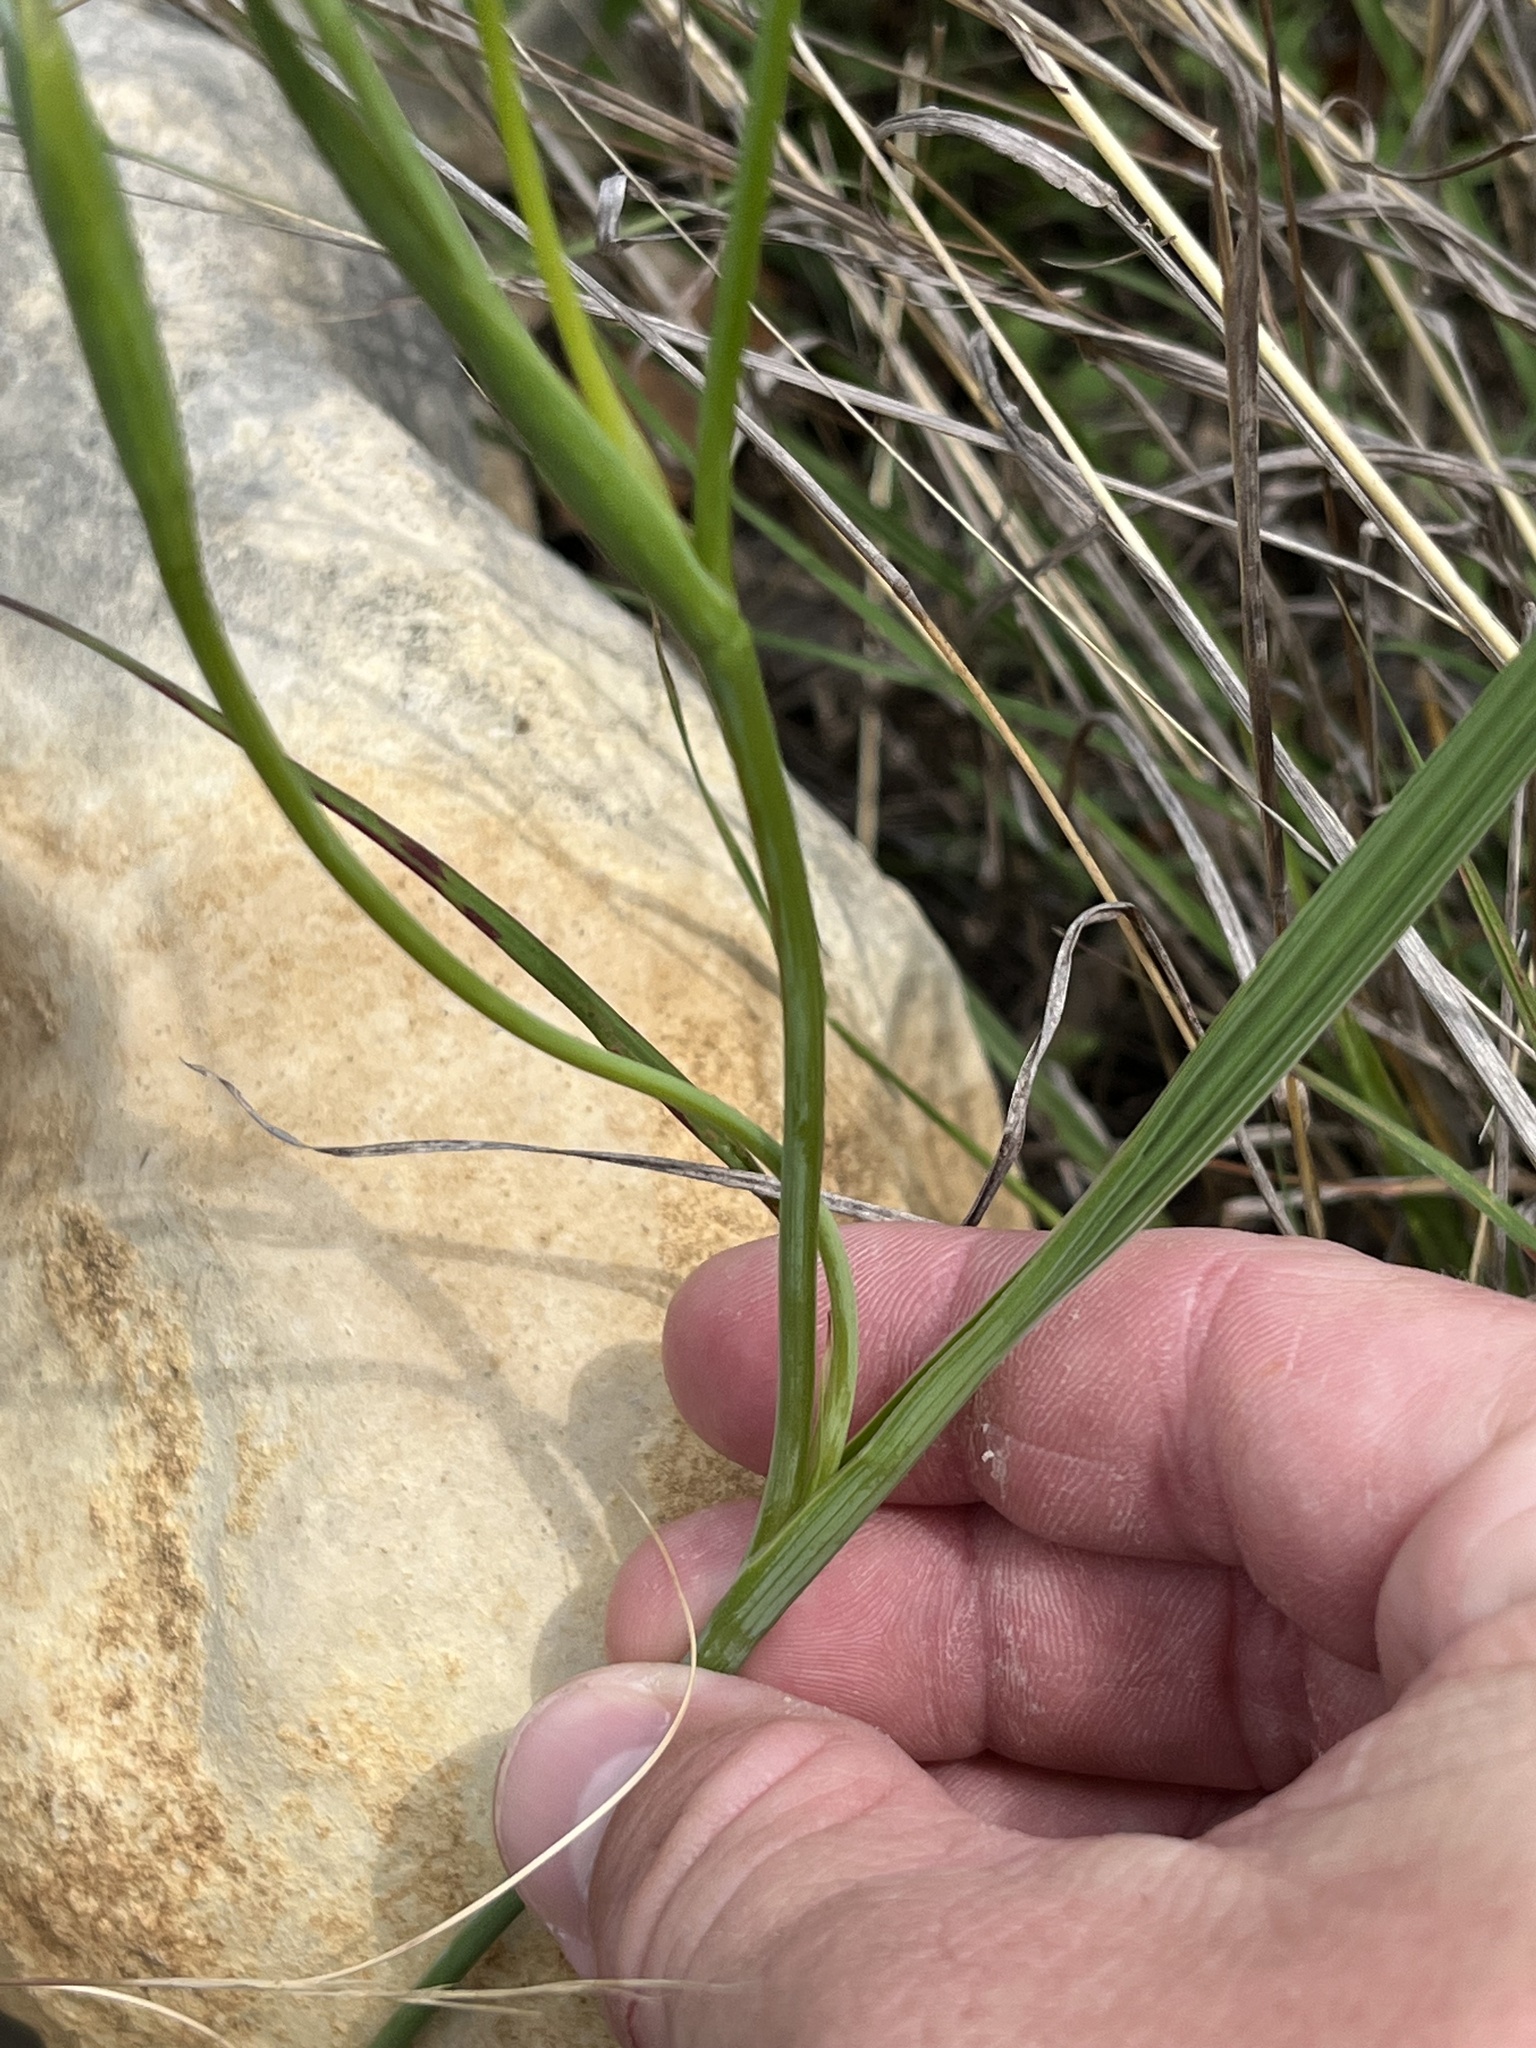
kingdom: Plantae
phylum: Tracheophyta
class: Liliopsida
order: Asparagales
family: Iridaceae
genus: Nemastylis
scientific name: Nemastylis geminiflora
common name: Prairie celestial
